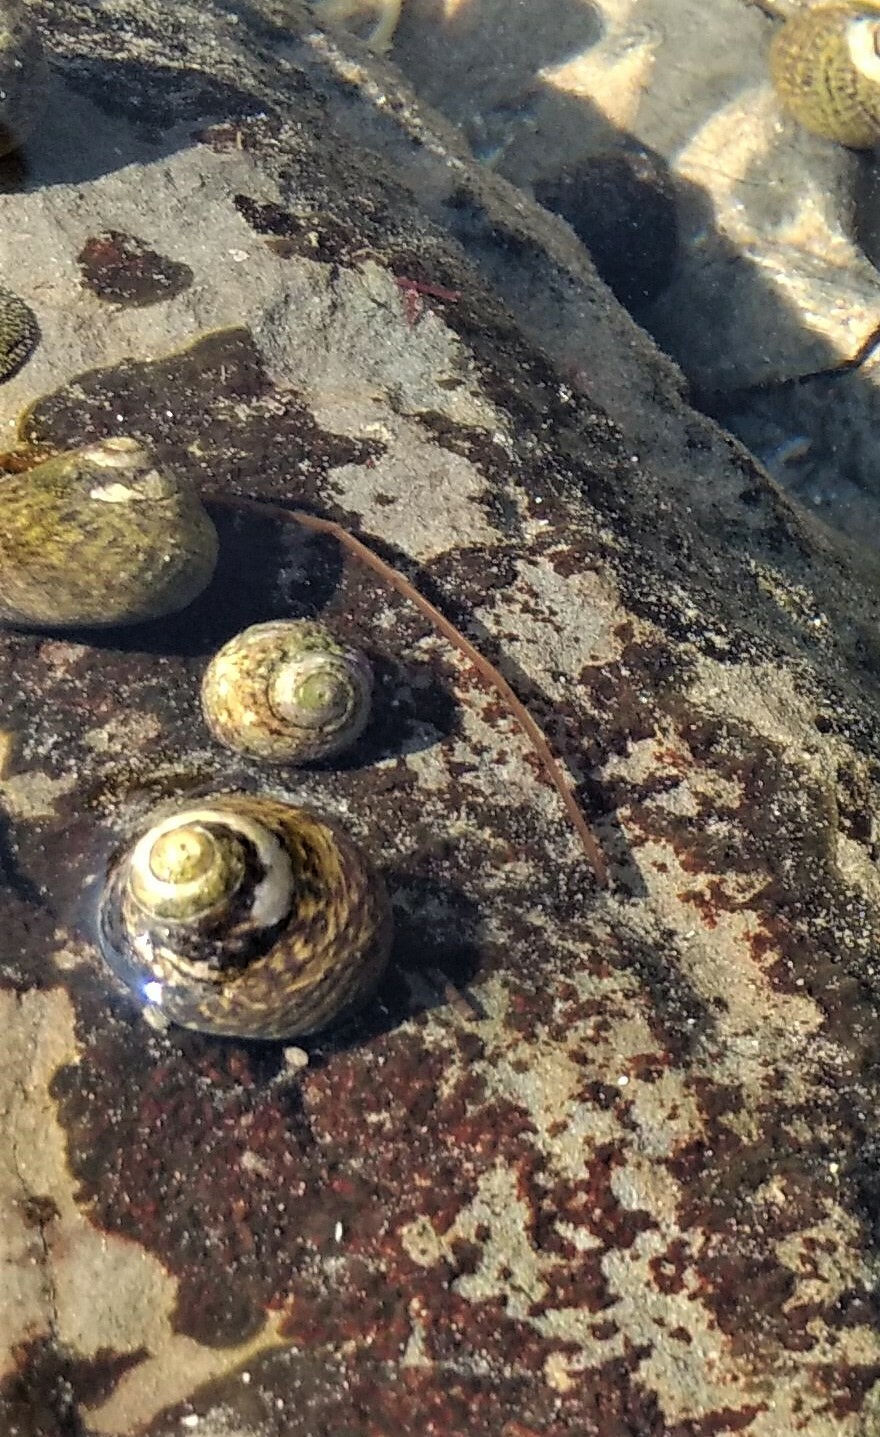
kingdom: Animalia
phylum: Mollusca
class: Gastropoda
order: Trochida
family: Tegulidae
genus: Tegula
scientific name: Tegula gallina
